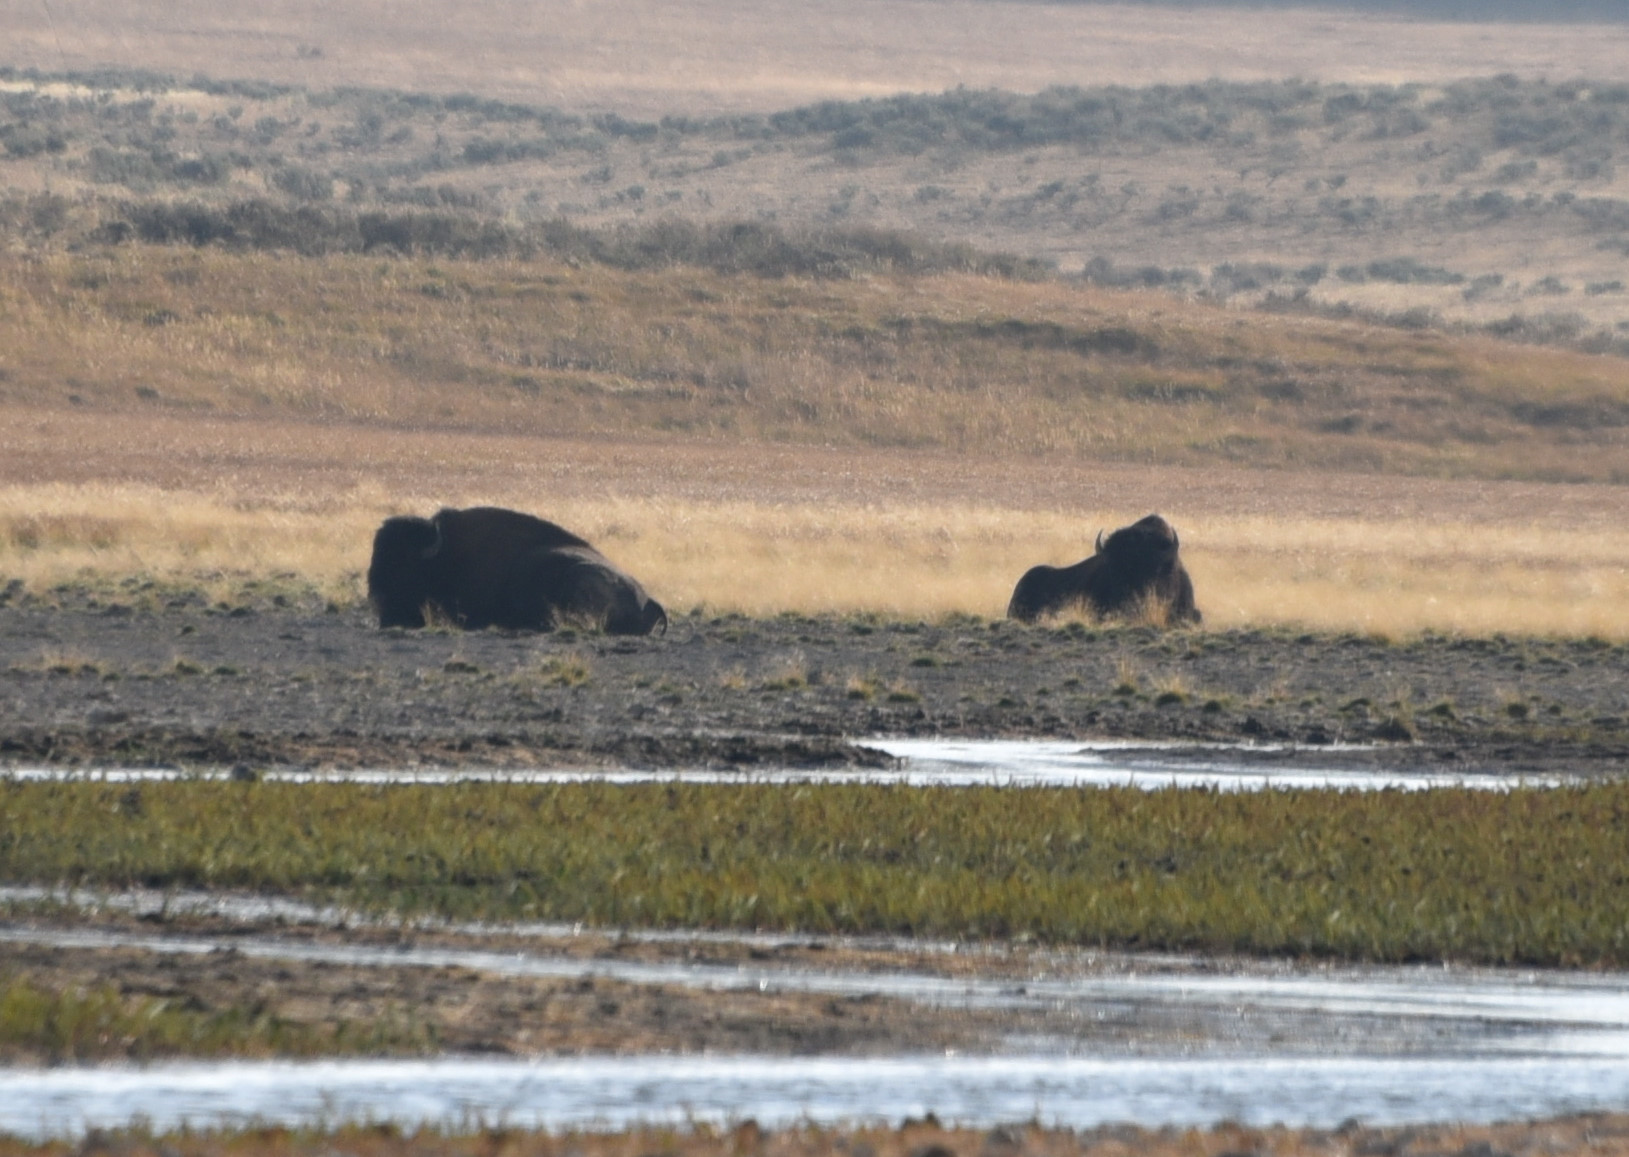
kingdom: Animalia
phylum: Chordata
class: Mammalia
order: Artiodactyla
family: Bovidae
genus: Bison
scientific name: Bison bison
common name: American bison
